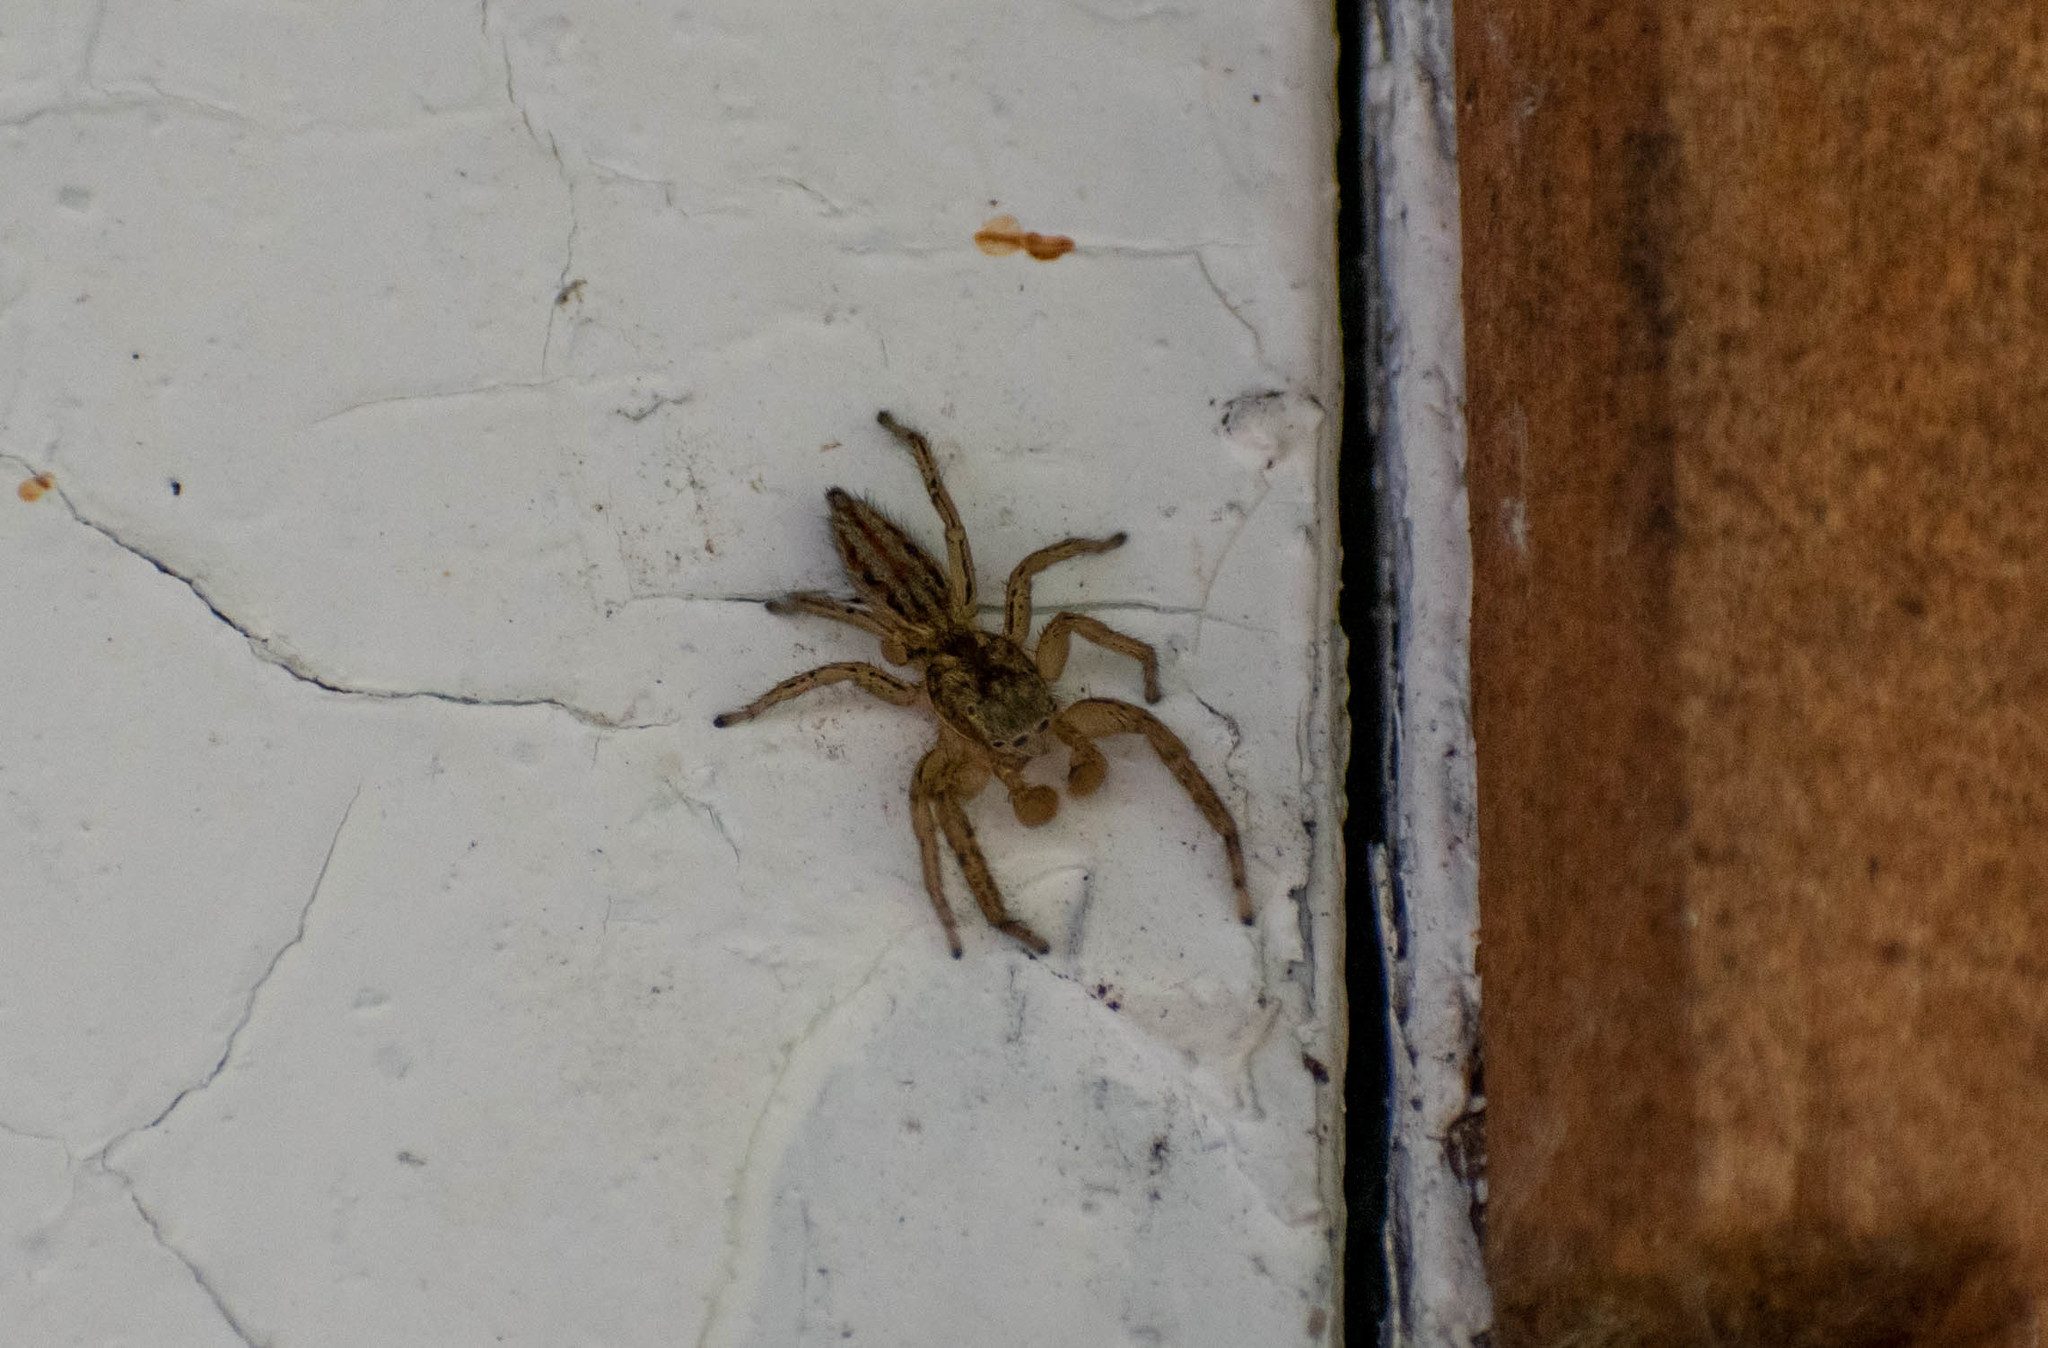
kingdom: Animalia
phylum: Arthropoda
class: Arachnida
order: Araneae
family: Salticidae
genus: Marpissa
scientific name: Marpissa radiata
